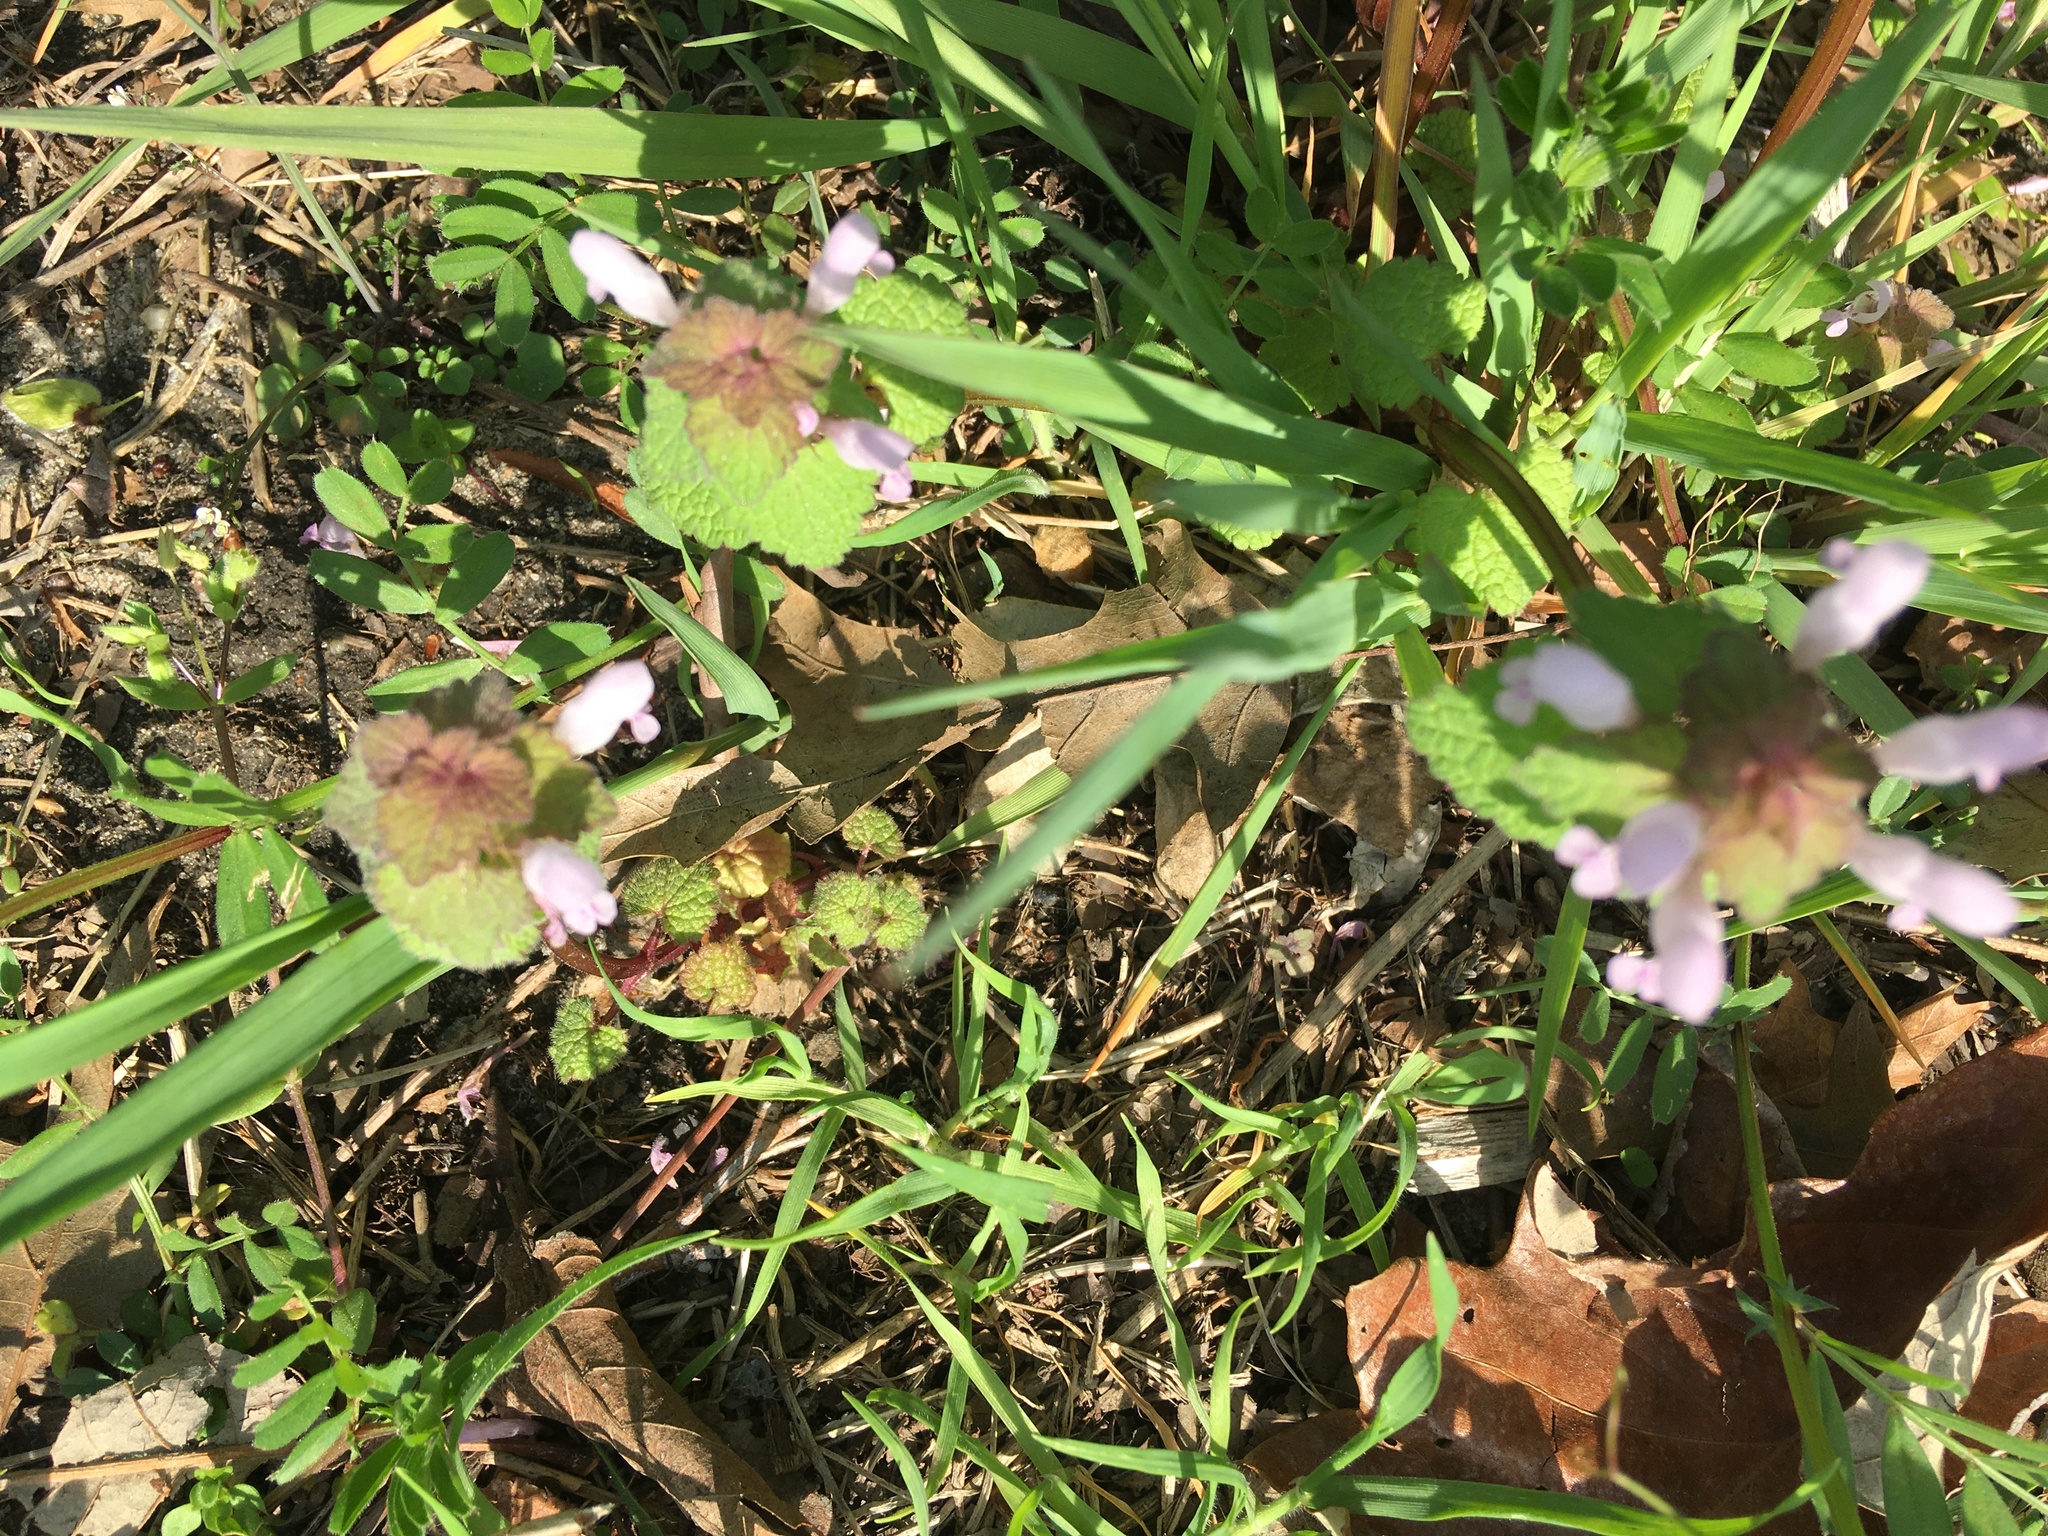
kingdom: Plantae
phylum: Tracheophyta
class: Magnoliopsida
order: Lamiales
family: Lamiaceae
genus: Lamium
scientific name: Lamium purpureum
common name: Red dead-nettle
